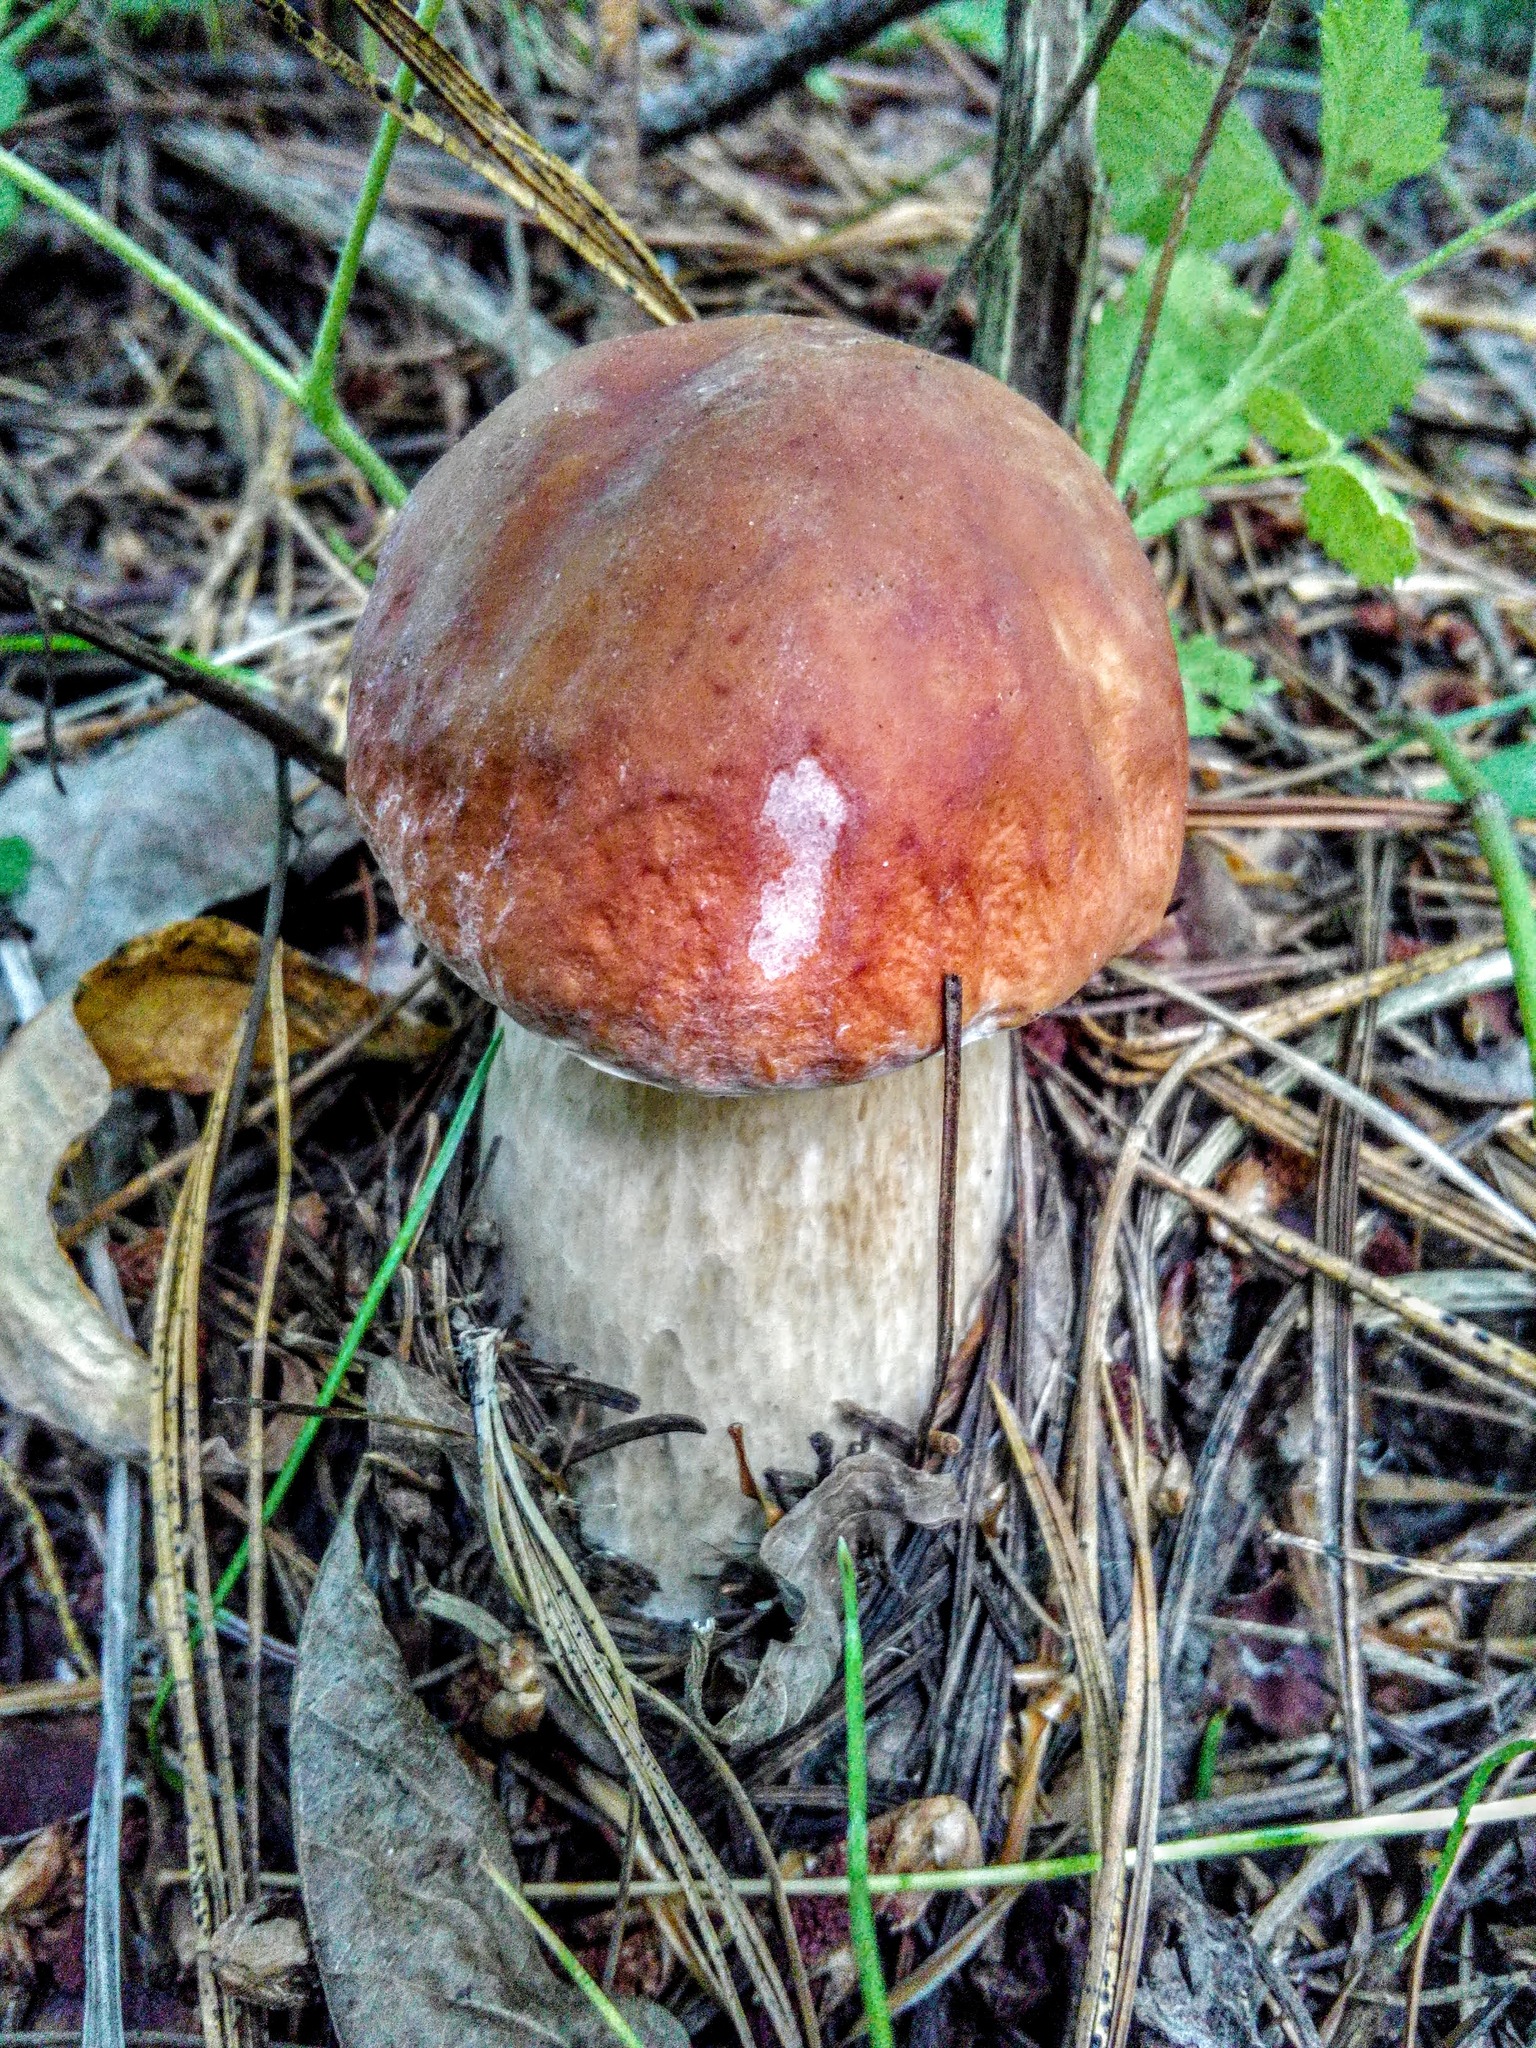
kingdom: Fungi
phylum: Basidiomycota
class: Agaricomycetes
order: Boletales
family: Boletaceae
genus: Boletus
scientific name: Boletus edulis
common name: Cep
